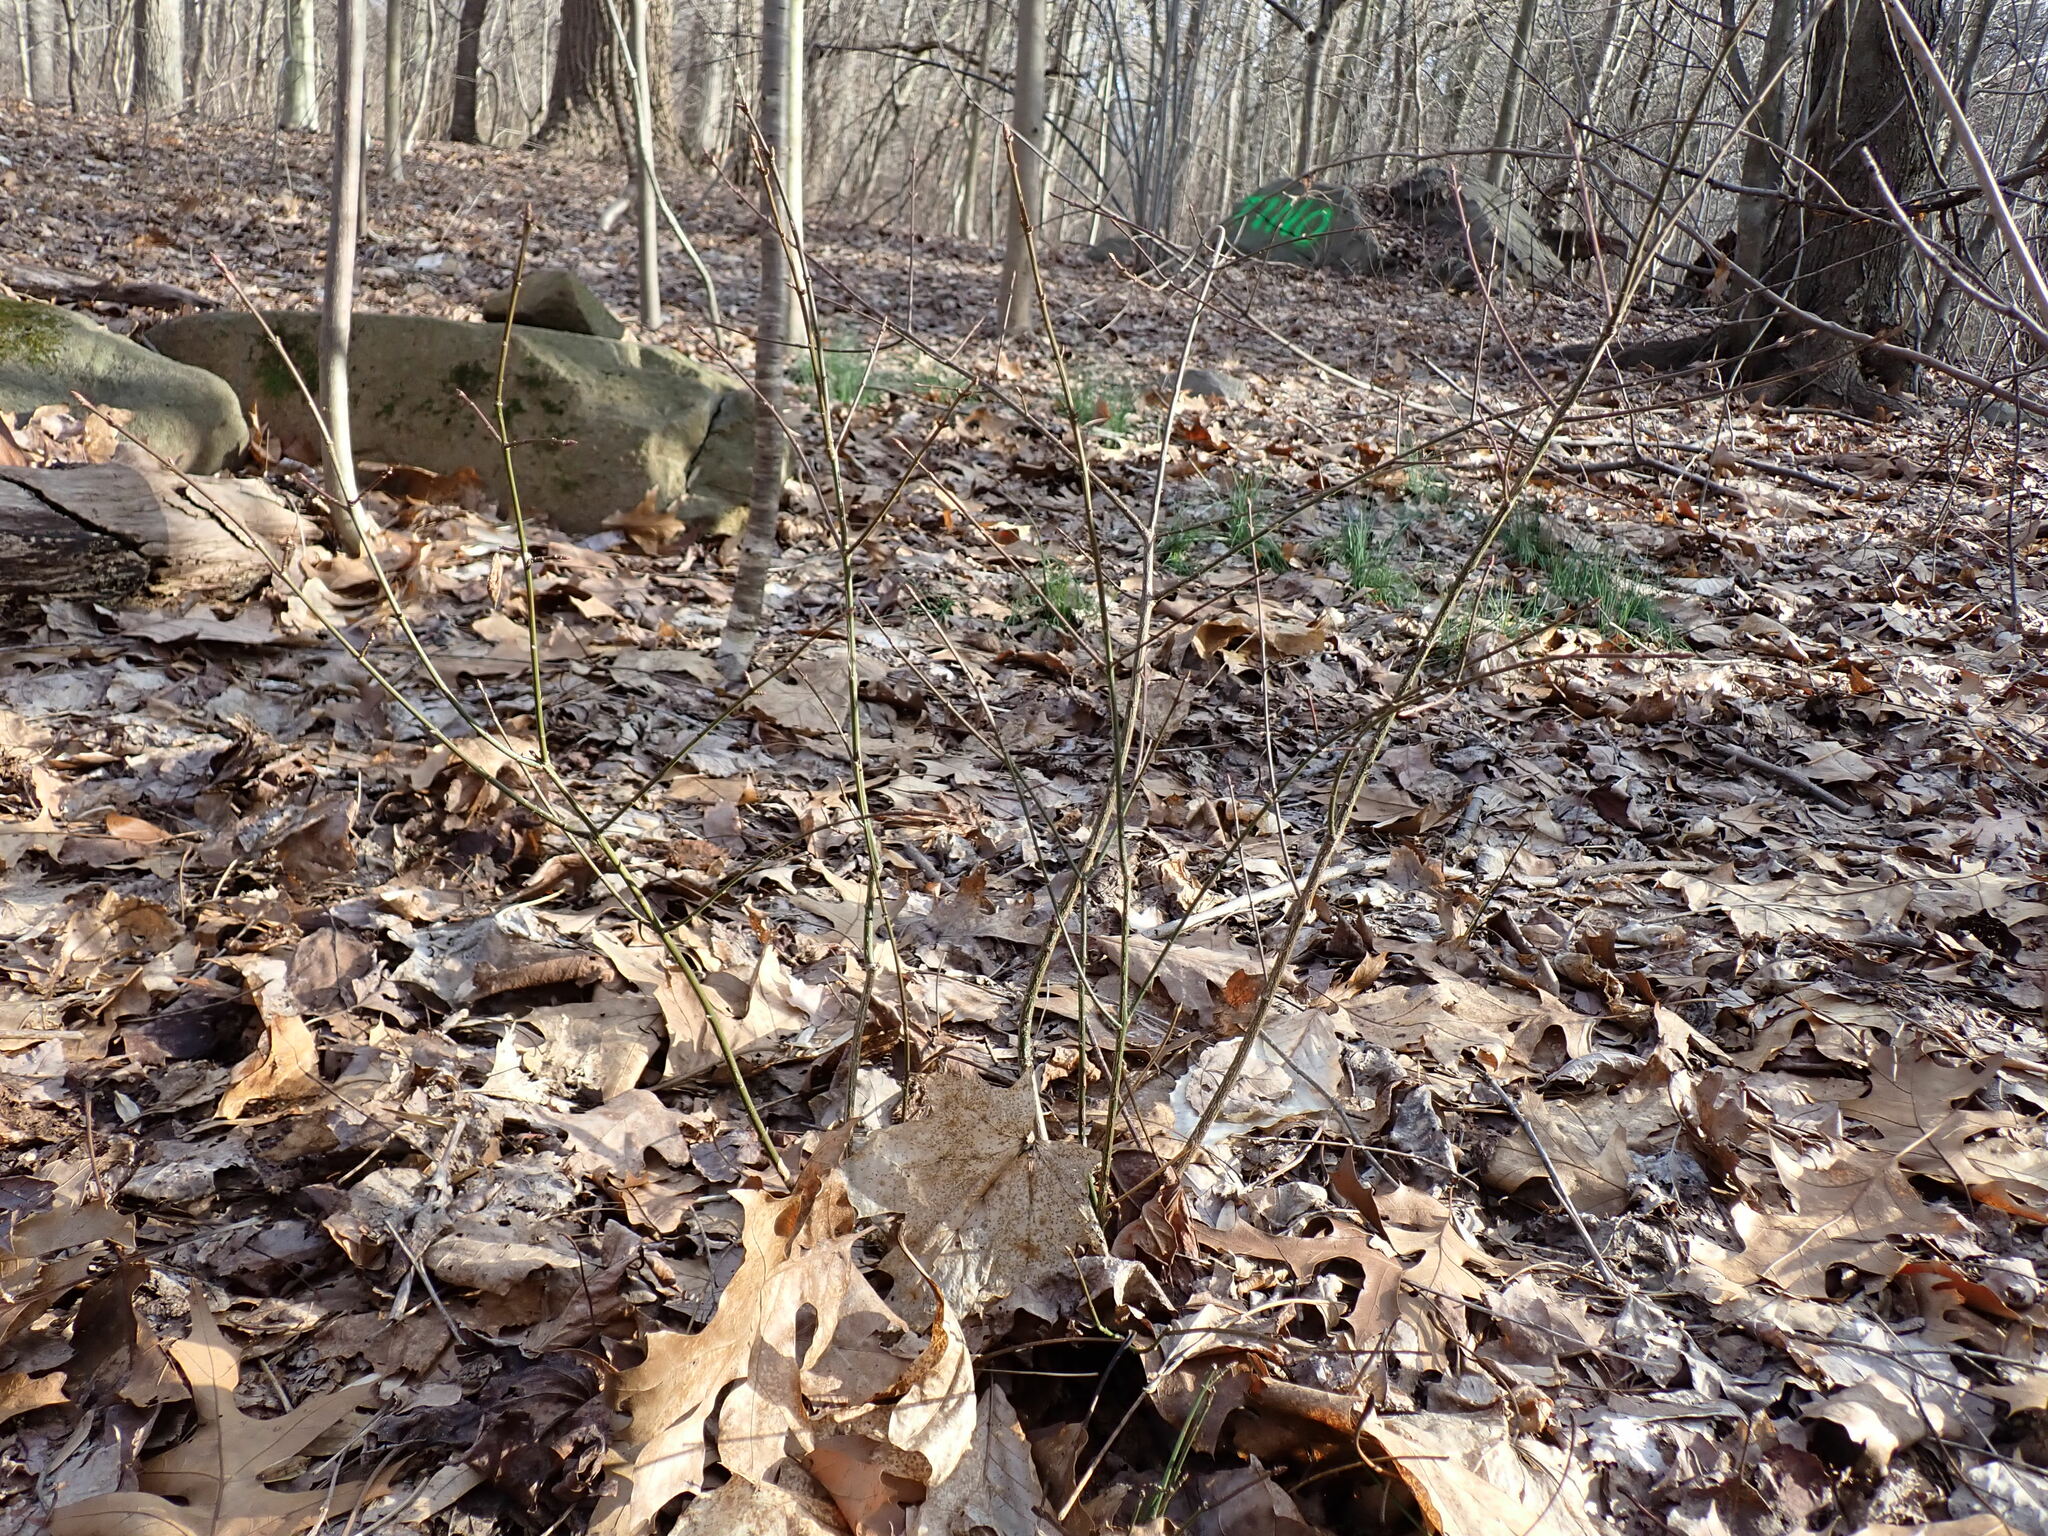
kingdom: Plantae
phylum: Tracheophyta
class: Magnoliopsida
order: Celastrales
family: Celastraceae
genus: Euonymus
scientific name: Euonymus alatus
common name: Winged euonymus
